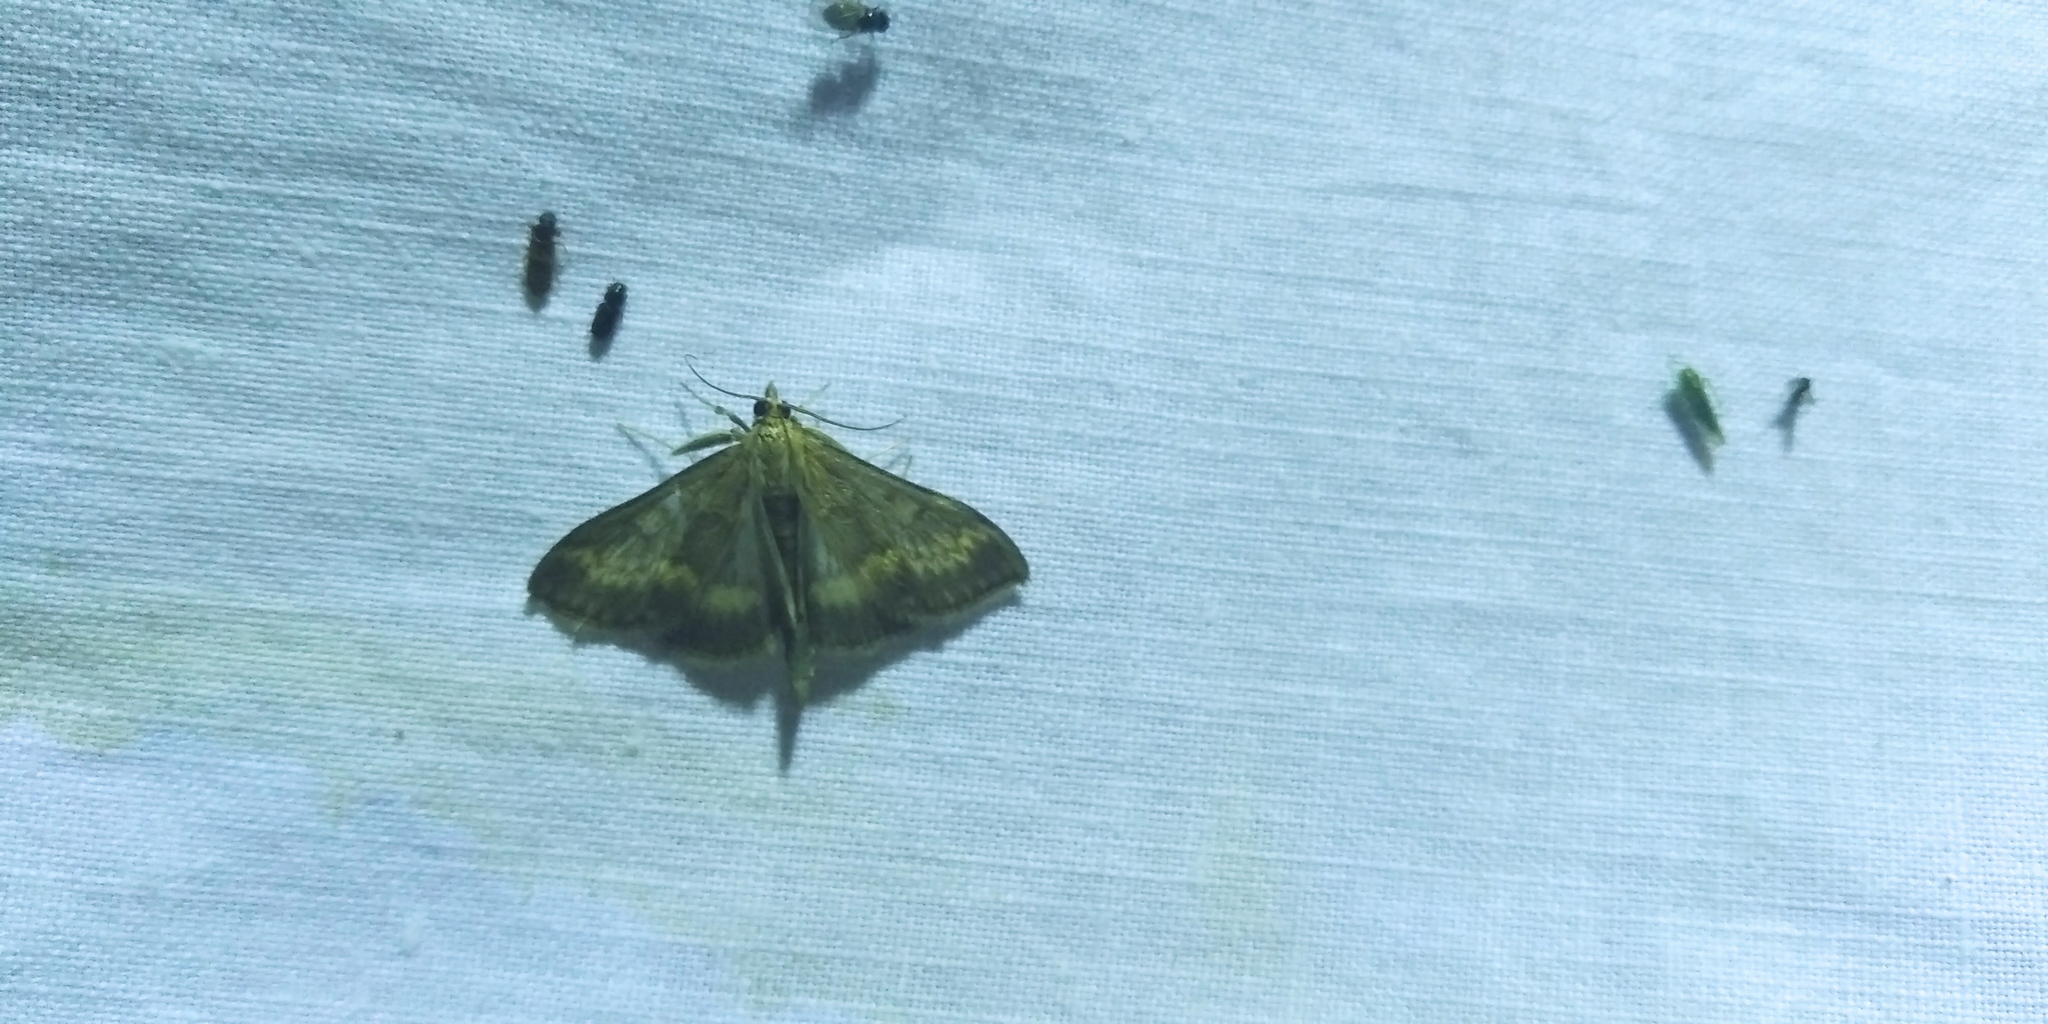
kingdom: Animalia
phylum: Arthropoda
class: Insecta
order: Lepidoptera
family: Crambidae
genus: Ostrinia
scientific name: Ostrinia nubilalis
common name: European corn borer
